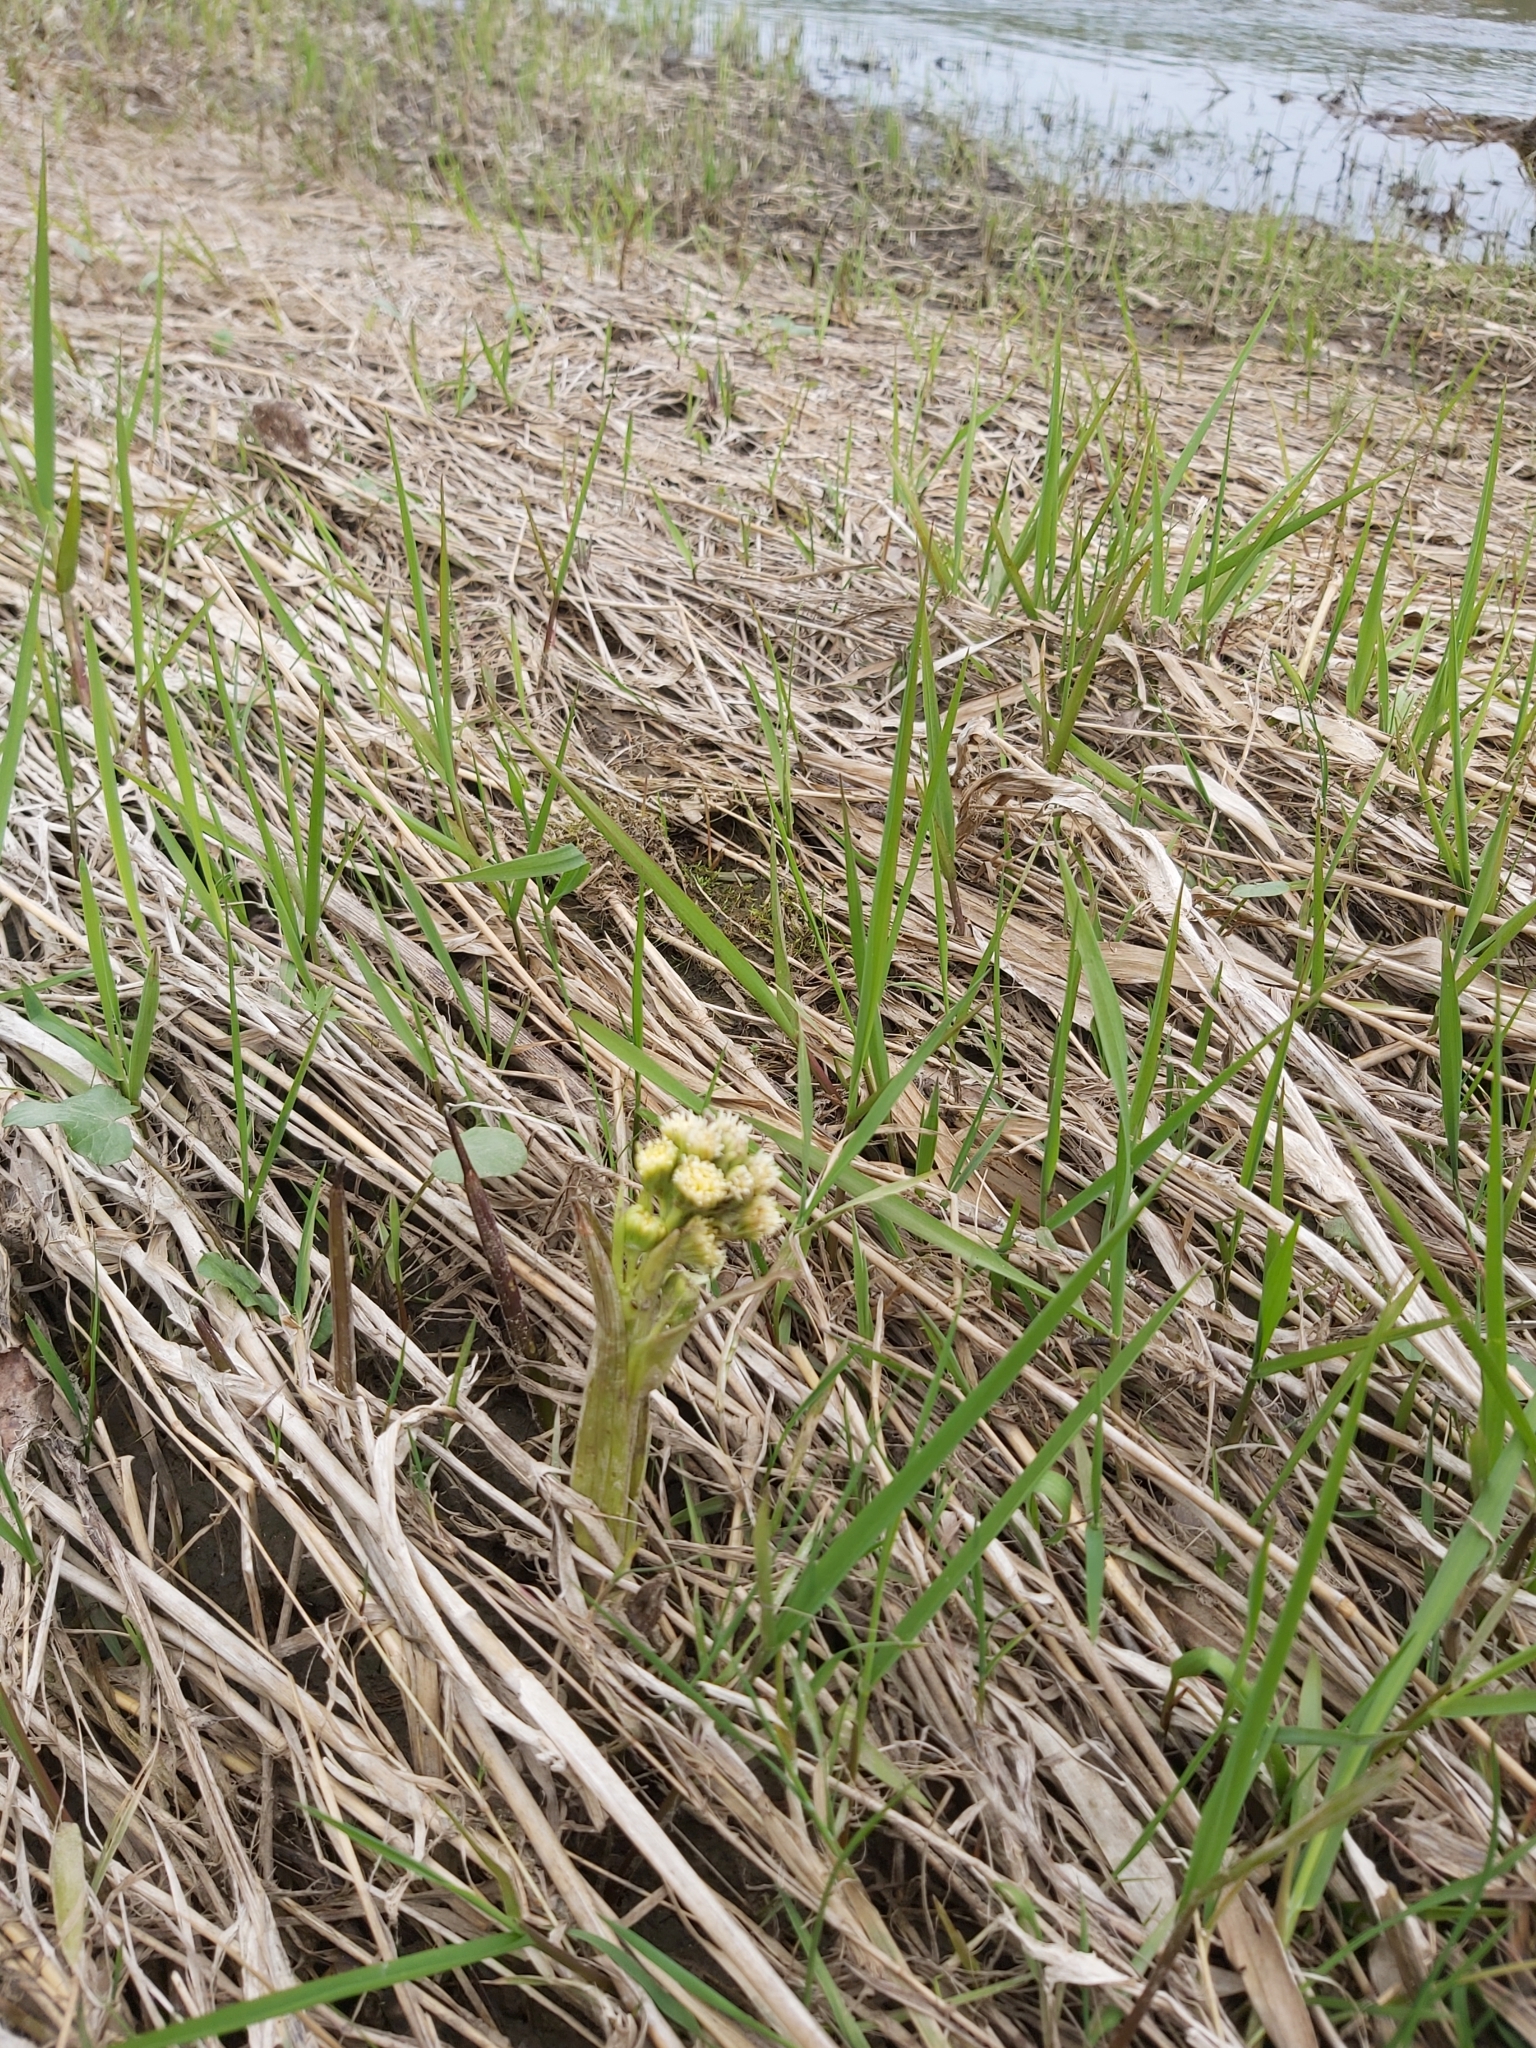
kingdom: Plantae
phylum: Tracheophyta
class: Magnoliopsida
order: Asterales
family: Asteraceae
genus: Petasites
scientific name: Petasites spurius
